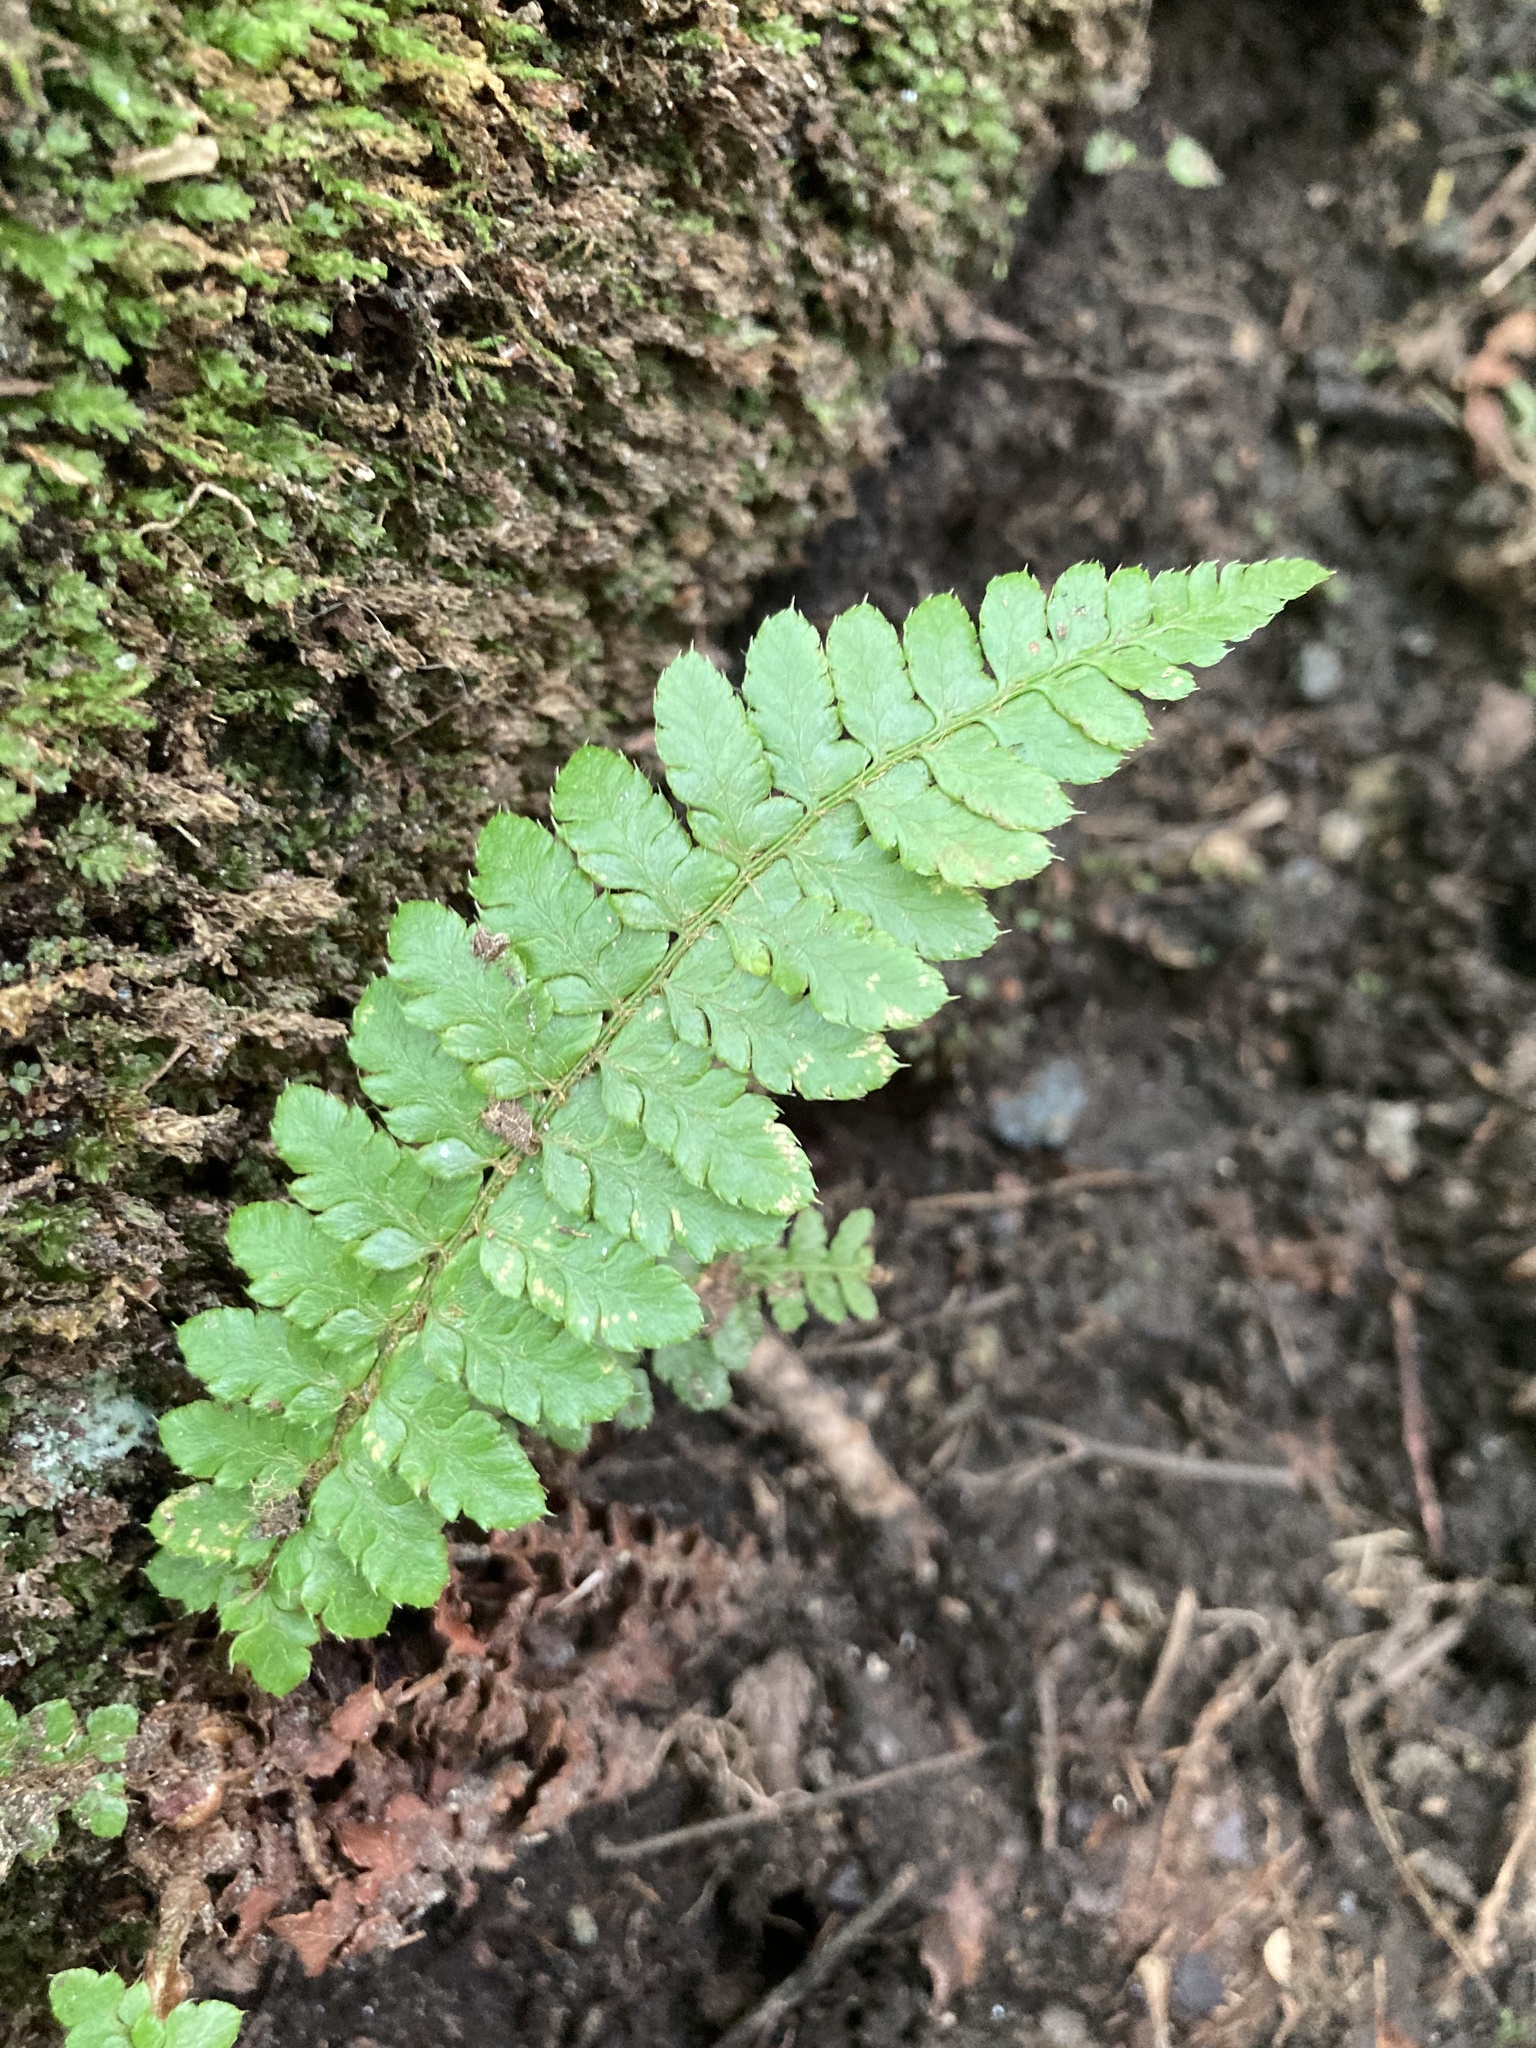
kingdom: Plantae
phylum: Tracheophyta
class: Polypodiopsida
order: Polypodiales
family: Dryopteridaceae
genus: Polystichum
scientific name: Polystichum braunii
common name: Braun's holly fern
